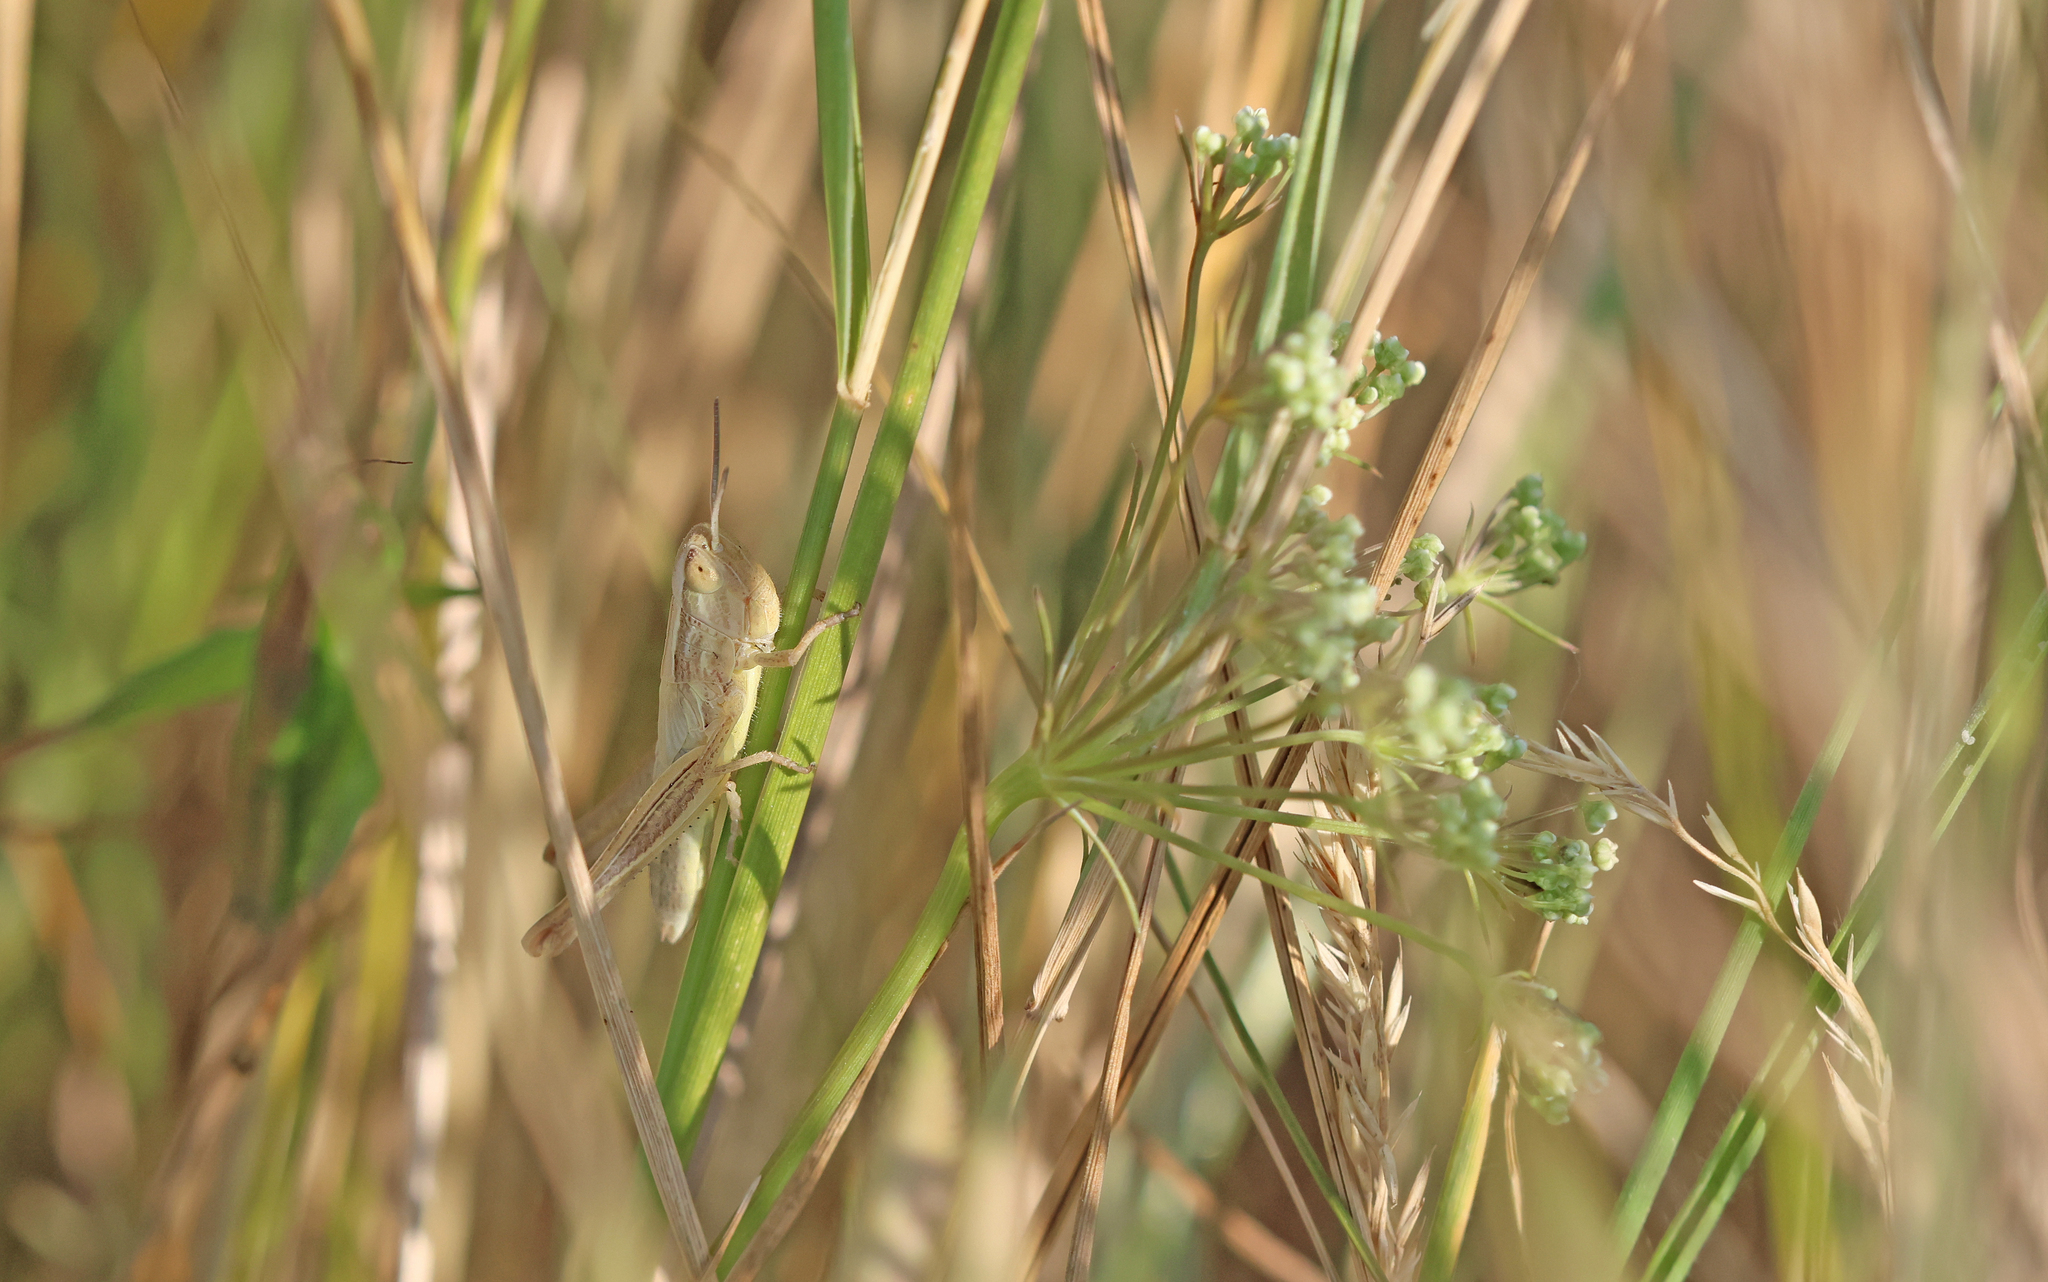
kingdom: Animalia
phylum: Arthropoda
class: Insecta
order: Orthoptera
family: Acrididae
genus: Euchorthippus
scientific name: Euchorthippus declivus
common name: Common straw grasshopper
